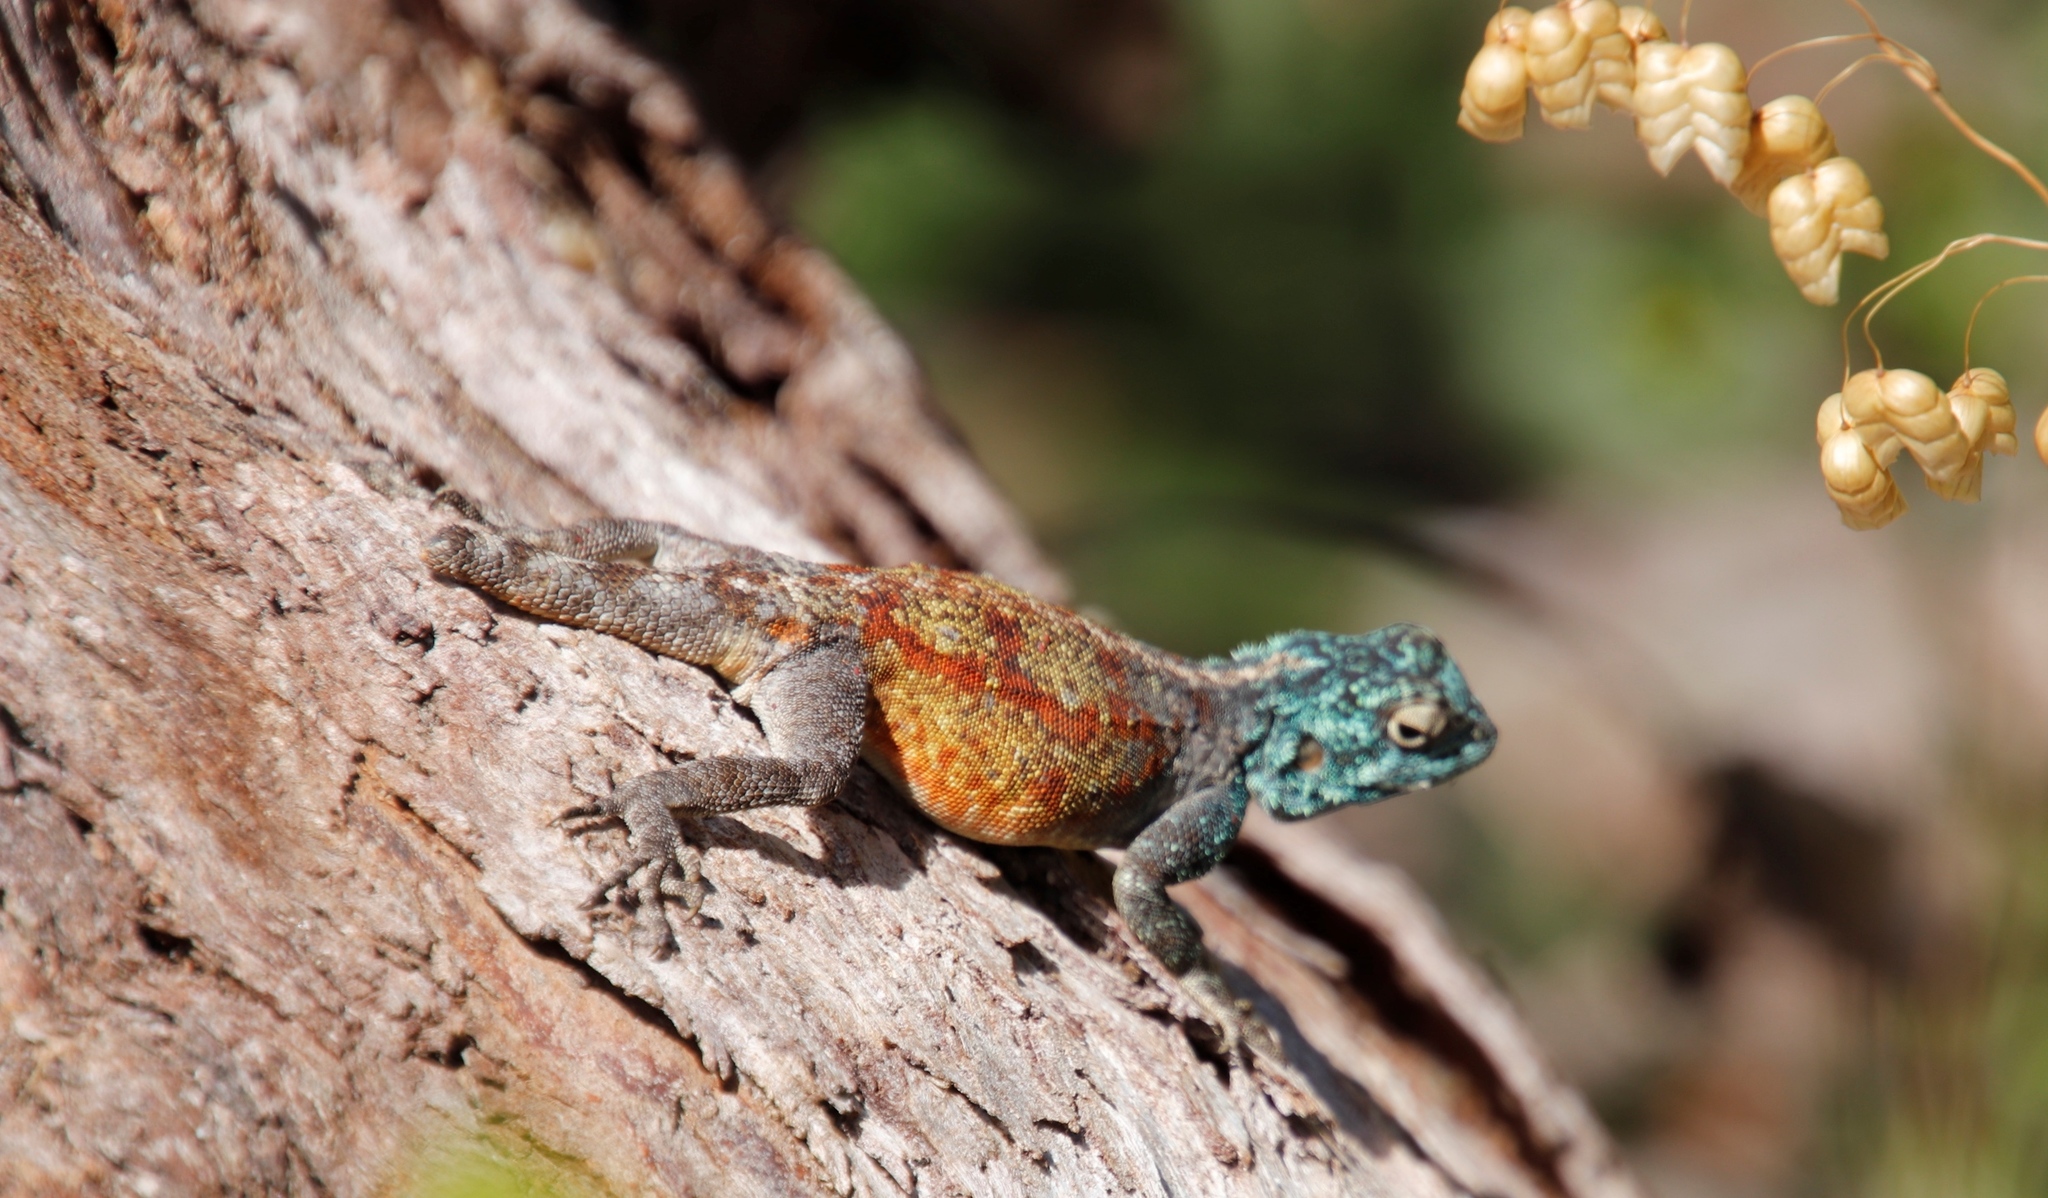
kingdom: Animalia
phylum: Chordata
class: Squamata
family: Agamidae
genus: Agama
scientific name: Agama atra
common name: Southern african rock agama
